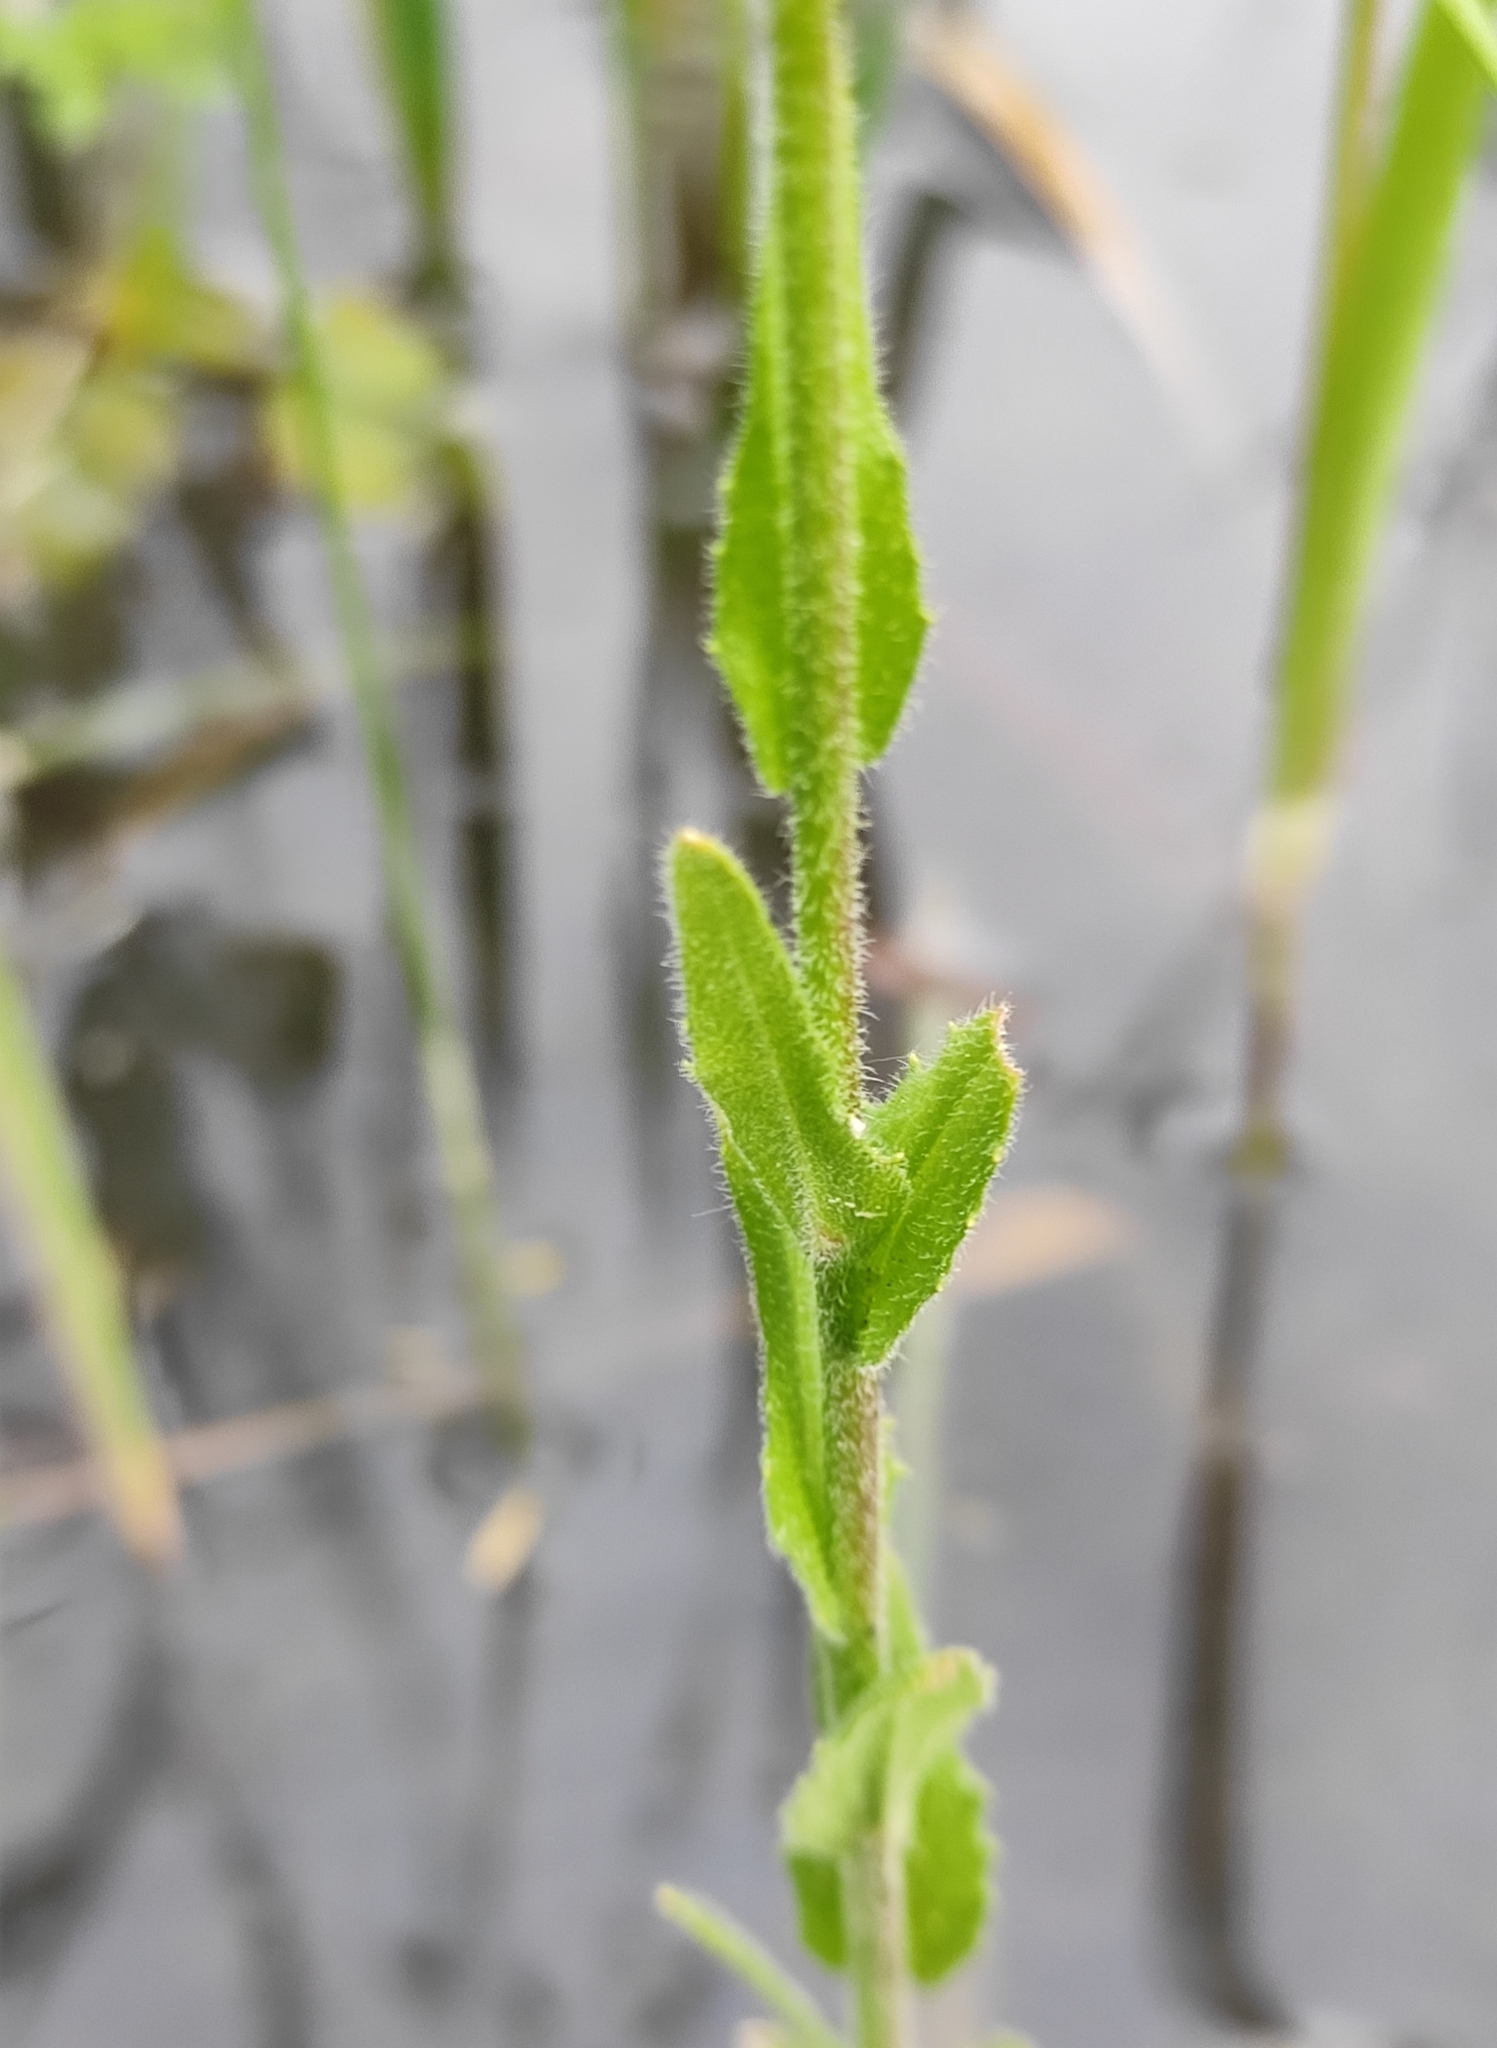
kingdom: Plantae
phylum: Tracheophyta
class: Magnoliopsida
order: Brassicales
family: Brassicaceae
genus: Arabis
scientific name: Arabis sagittata
